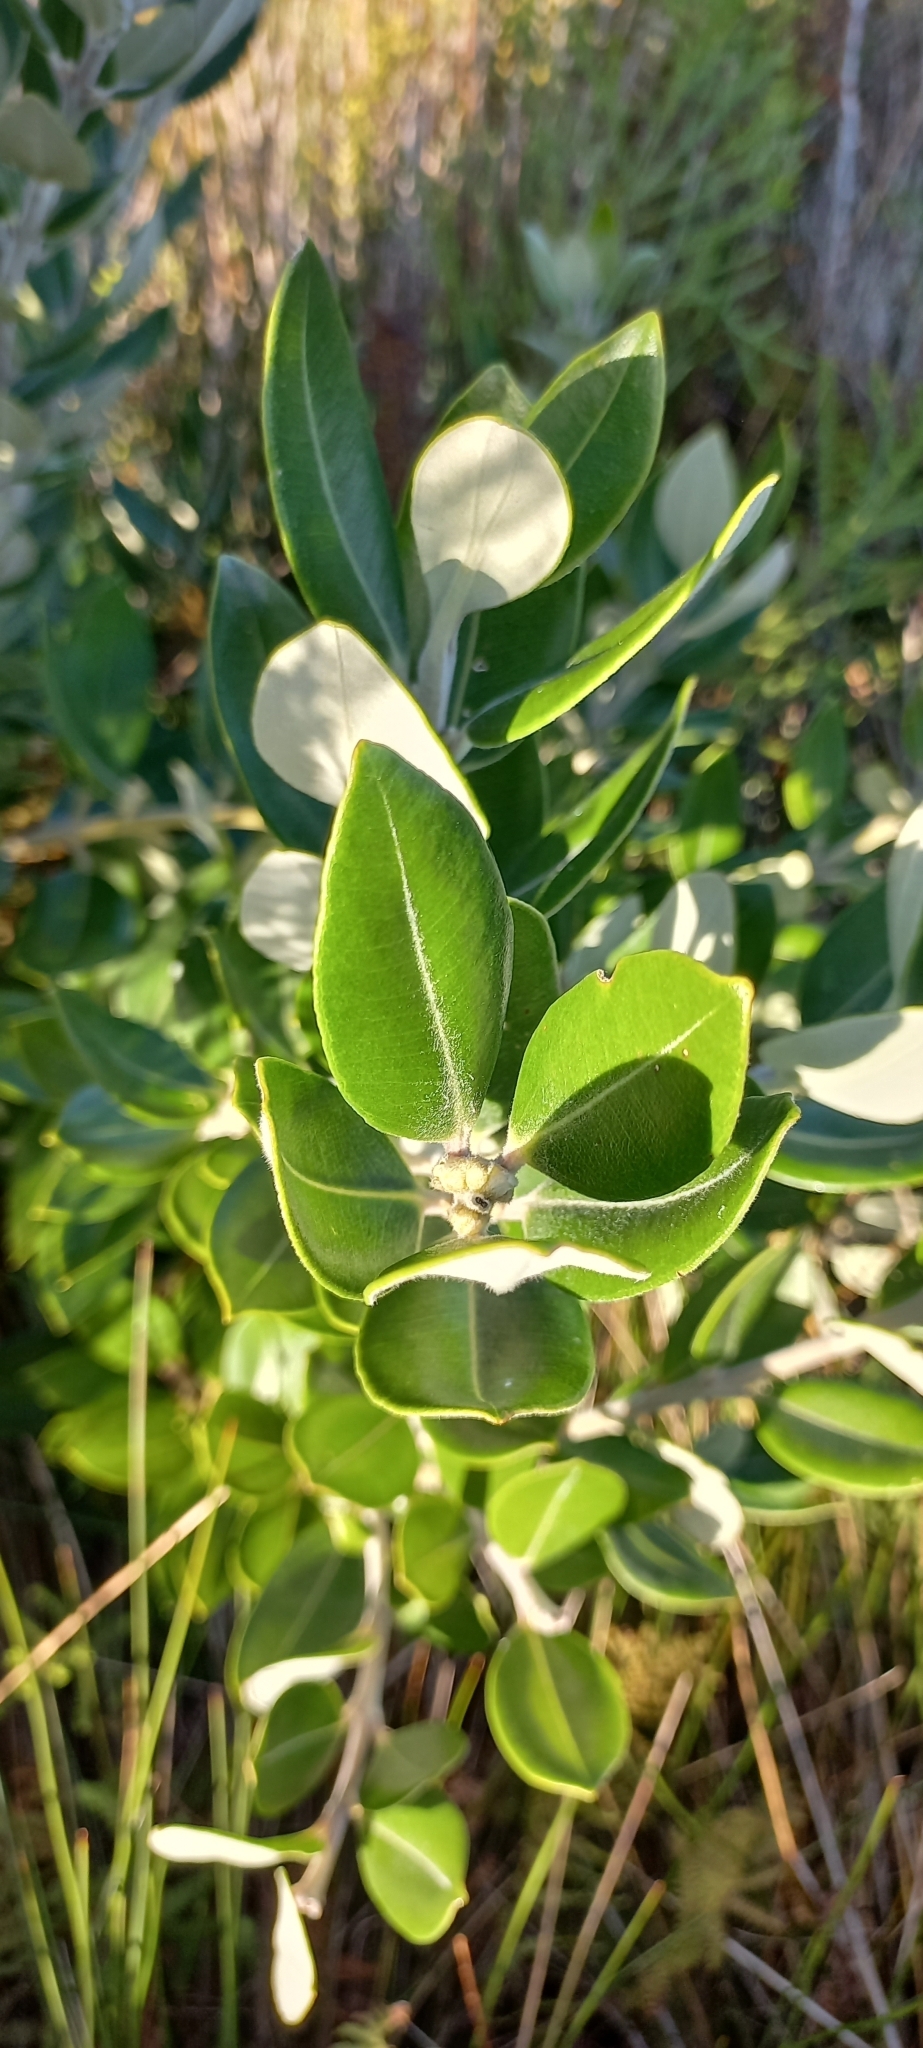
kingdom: Plantae
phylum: Tracheophyta
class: Magnoliopsida
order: Myrtales
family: Myrtaceae
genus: Metrosideros
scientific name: Metrosideros excelsa
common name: New zealand christmastree
